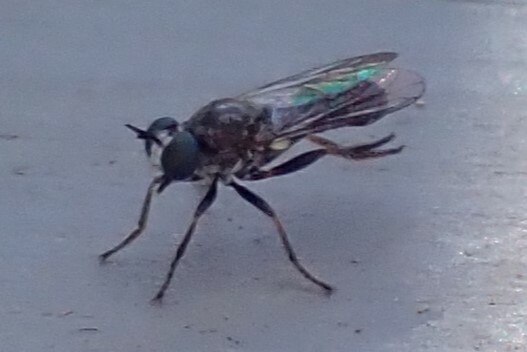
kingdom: Animalia
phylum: Arthropoda
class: Insecta
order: Diptera
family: Asilidae
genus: Atomosia
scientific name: Atomosia puella
